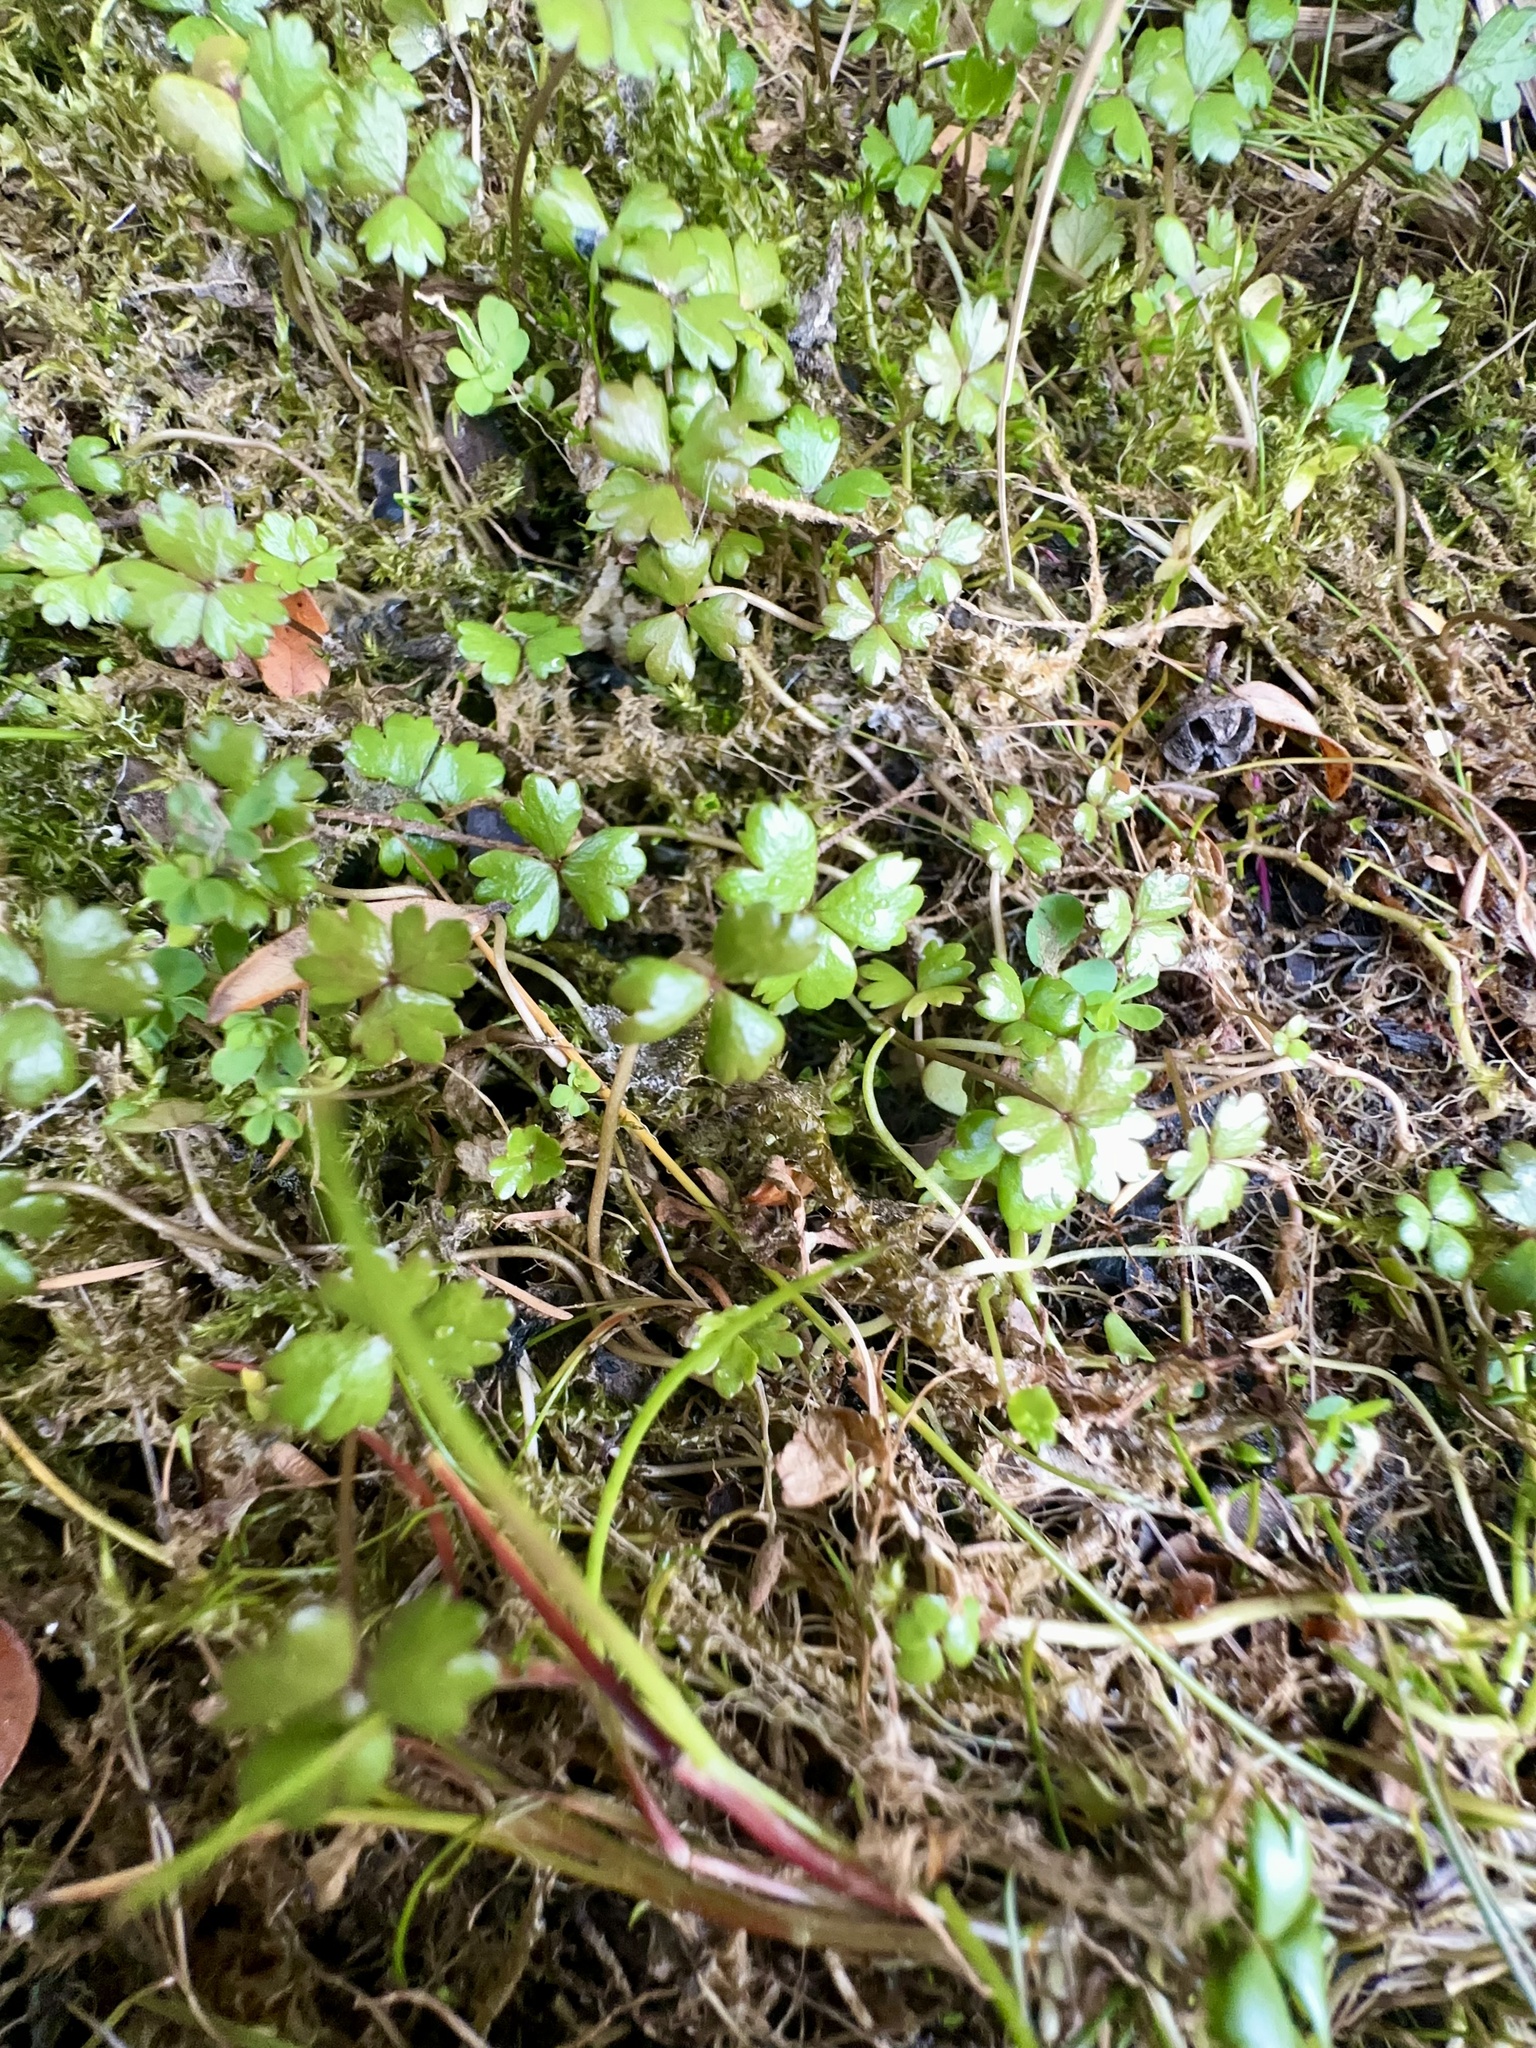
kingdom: Plantae
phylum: Tracheophyta
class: Magnoliopsida
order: Apiales
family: Araliaceae
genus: Hydrocotyle
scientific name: Hydrocotyle sulcata
